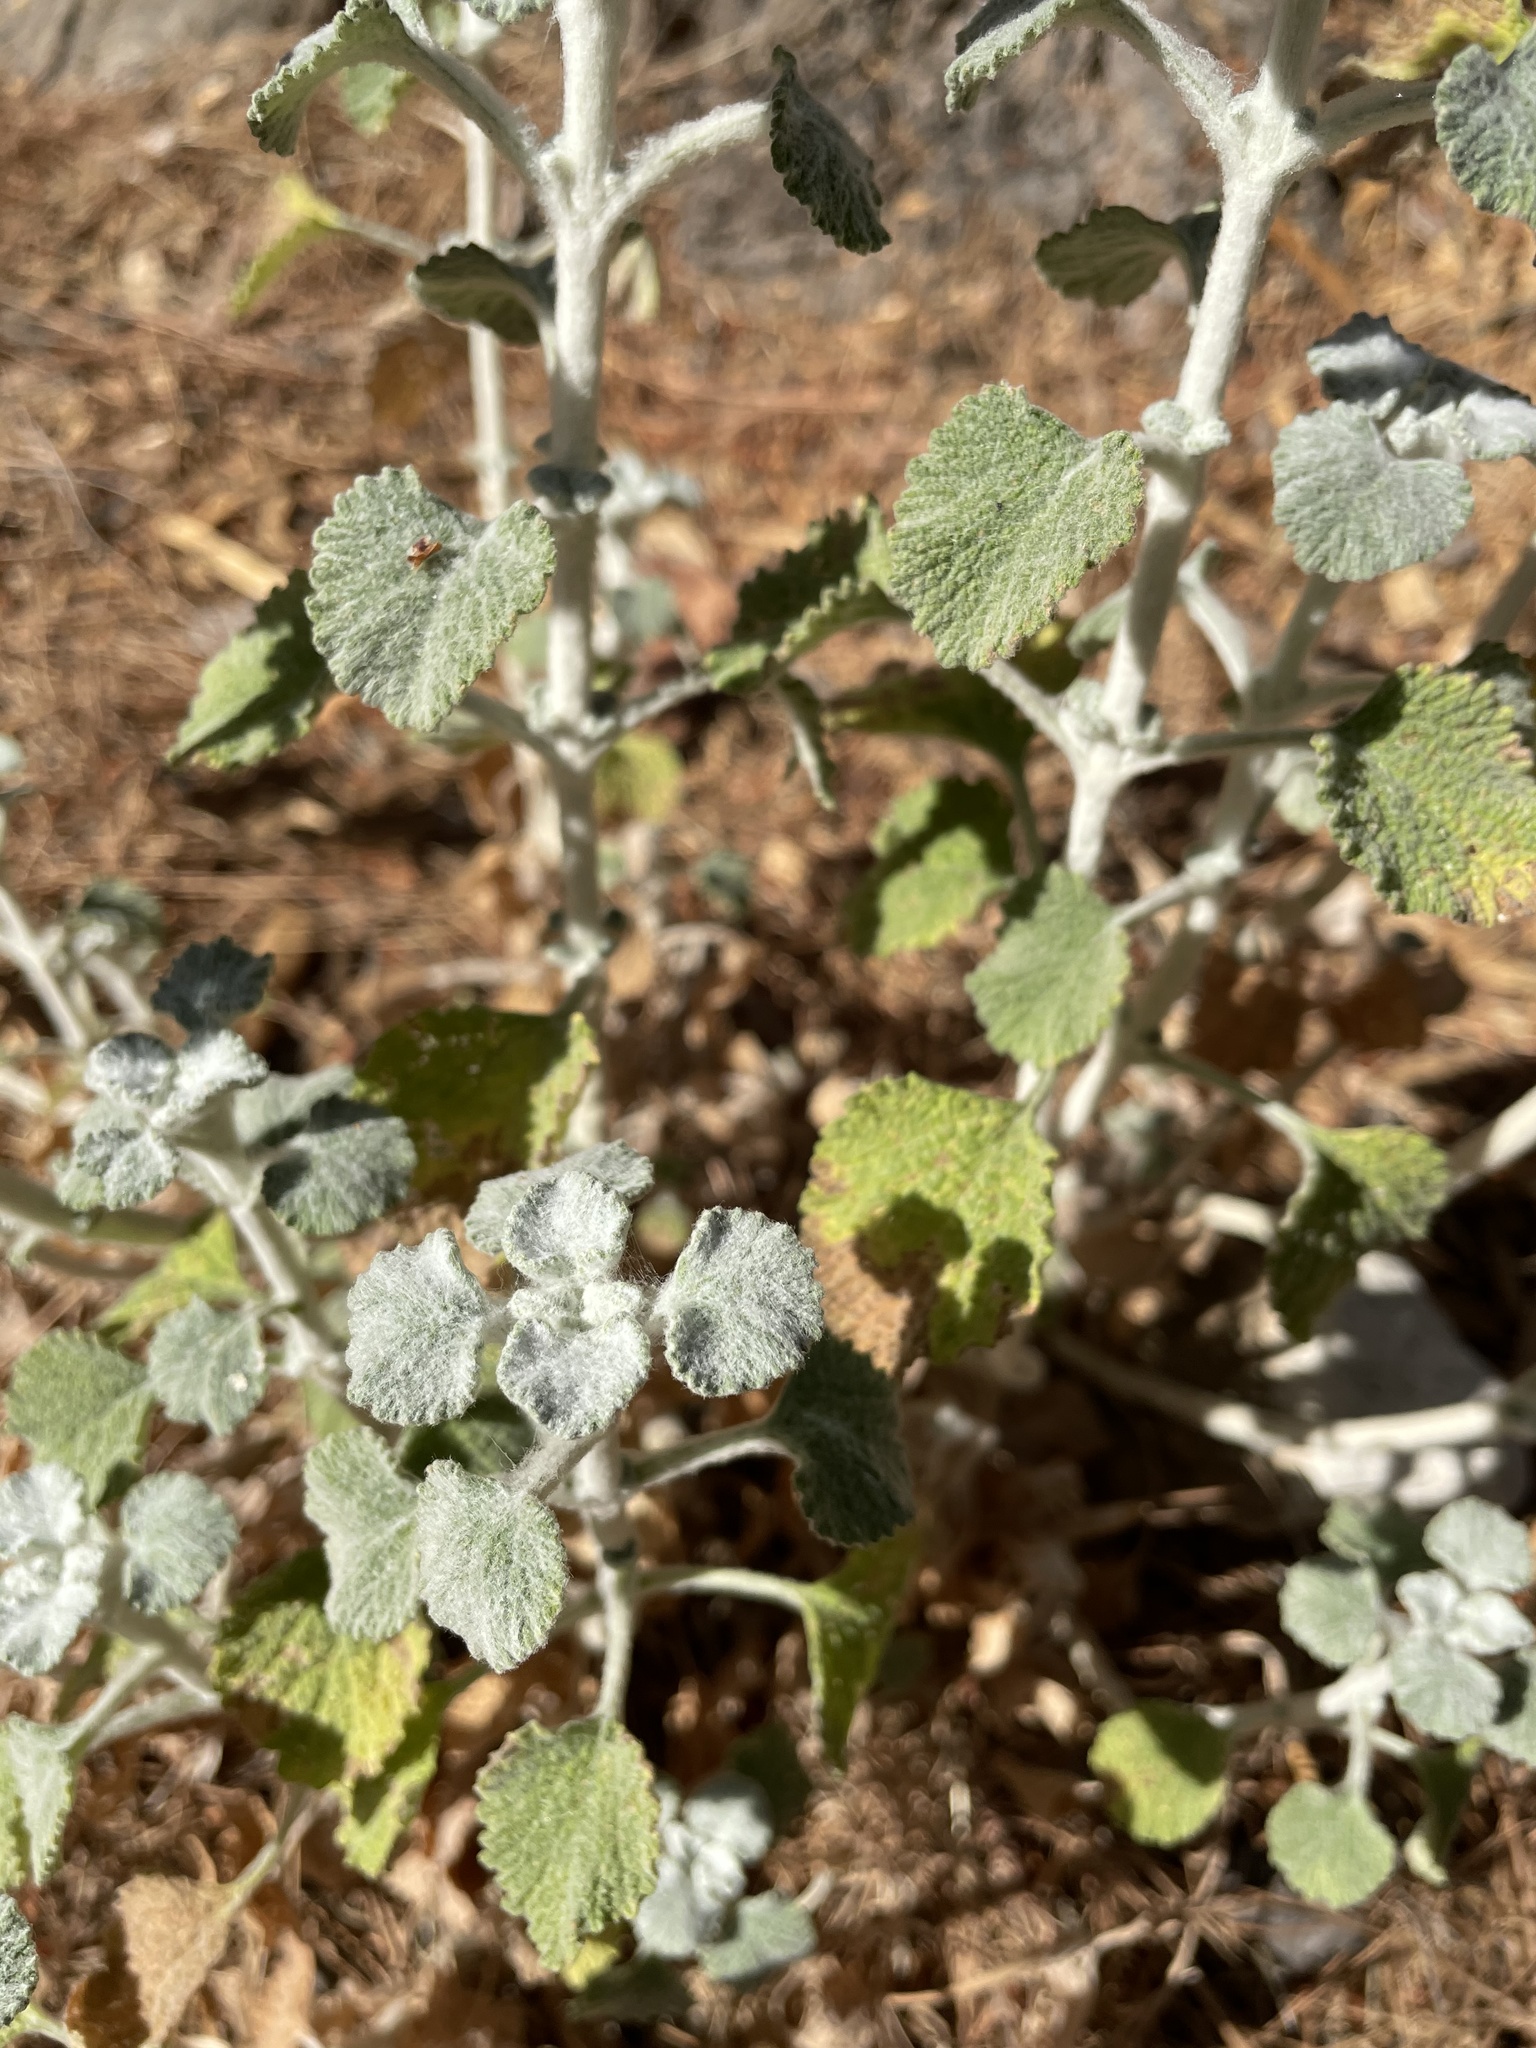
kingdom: Plantae
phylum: Tracheophyta
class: Magnoliopsida
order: Lamiales
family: Lamiaceae
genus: Marrubium
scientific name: Marrubium vulgare
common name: Horehound
